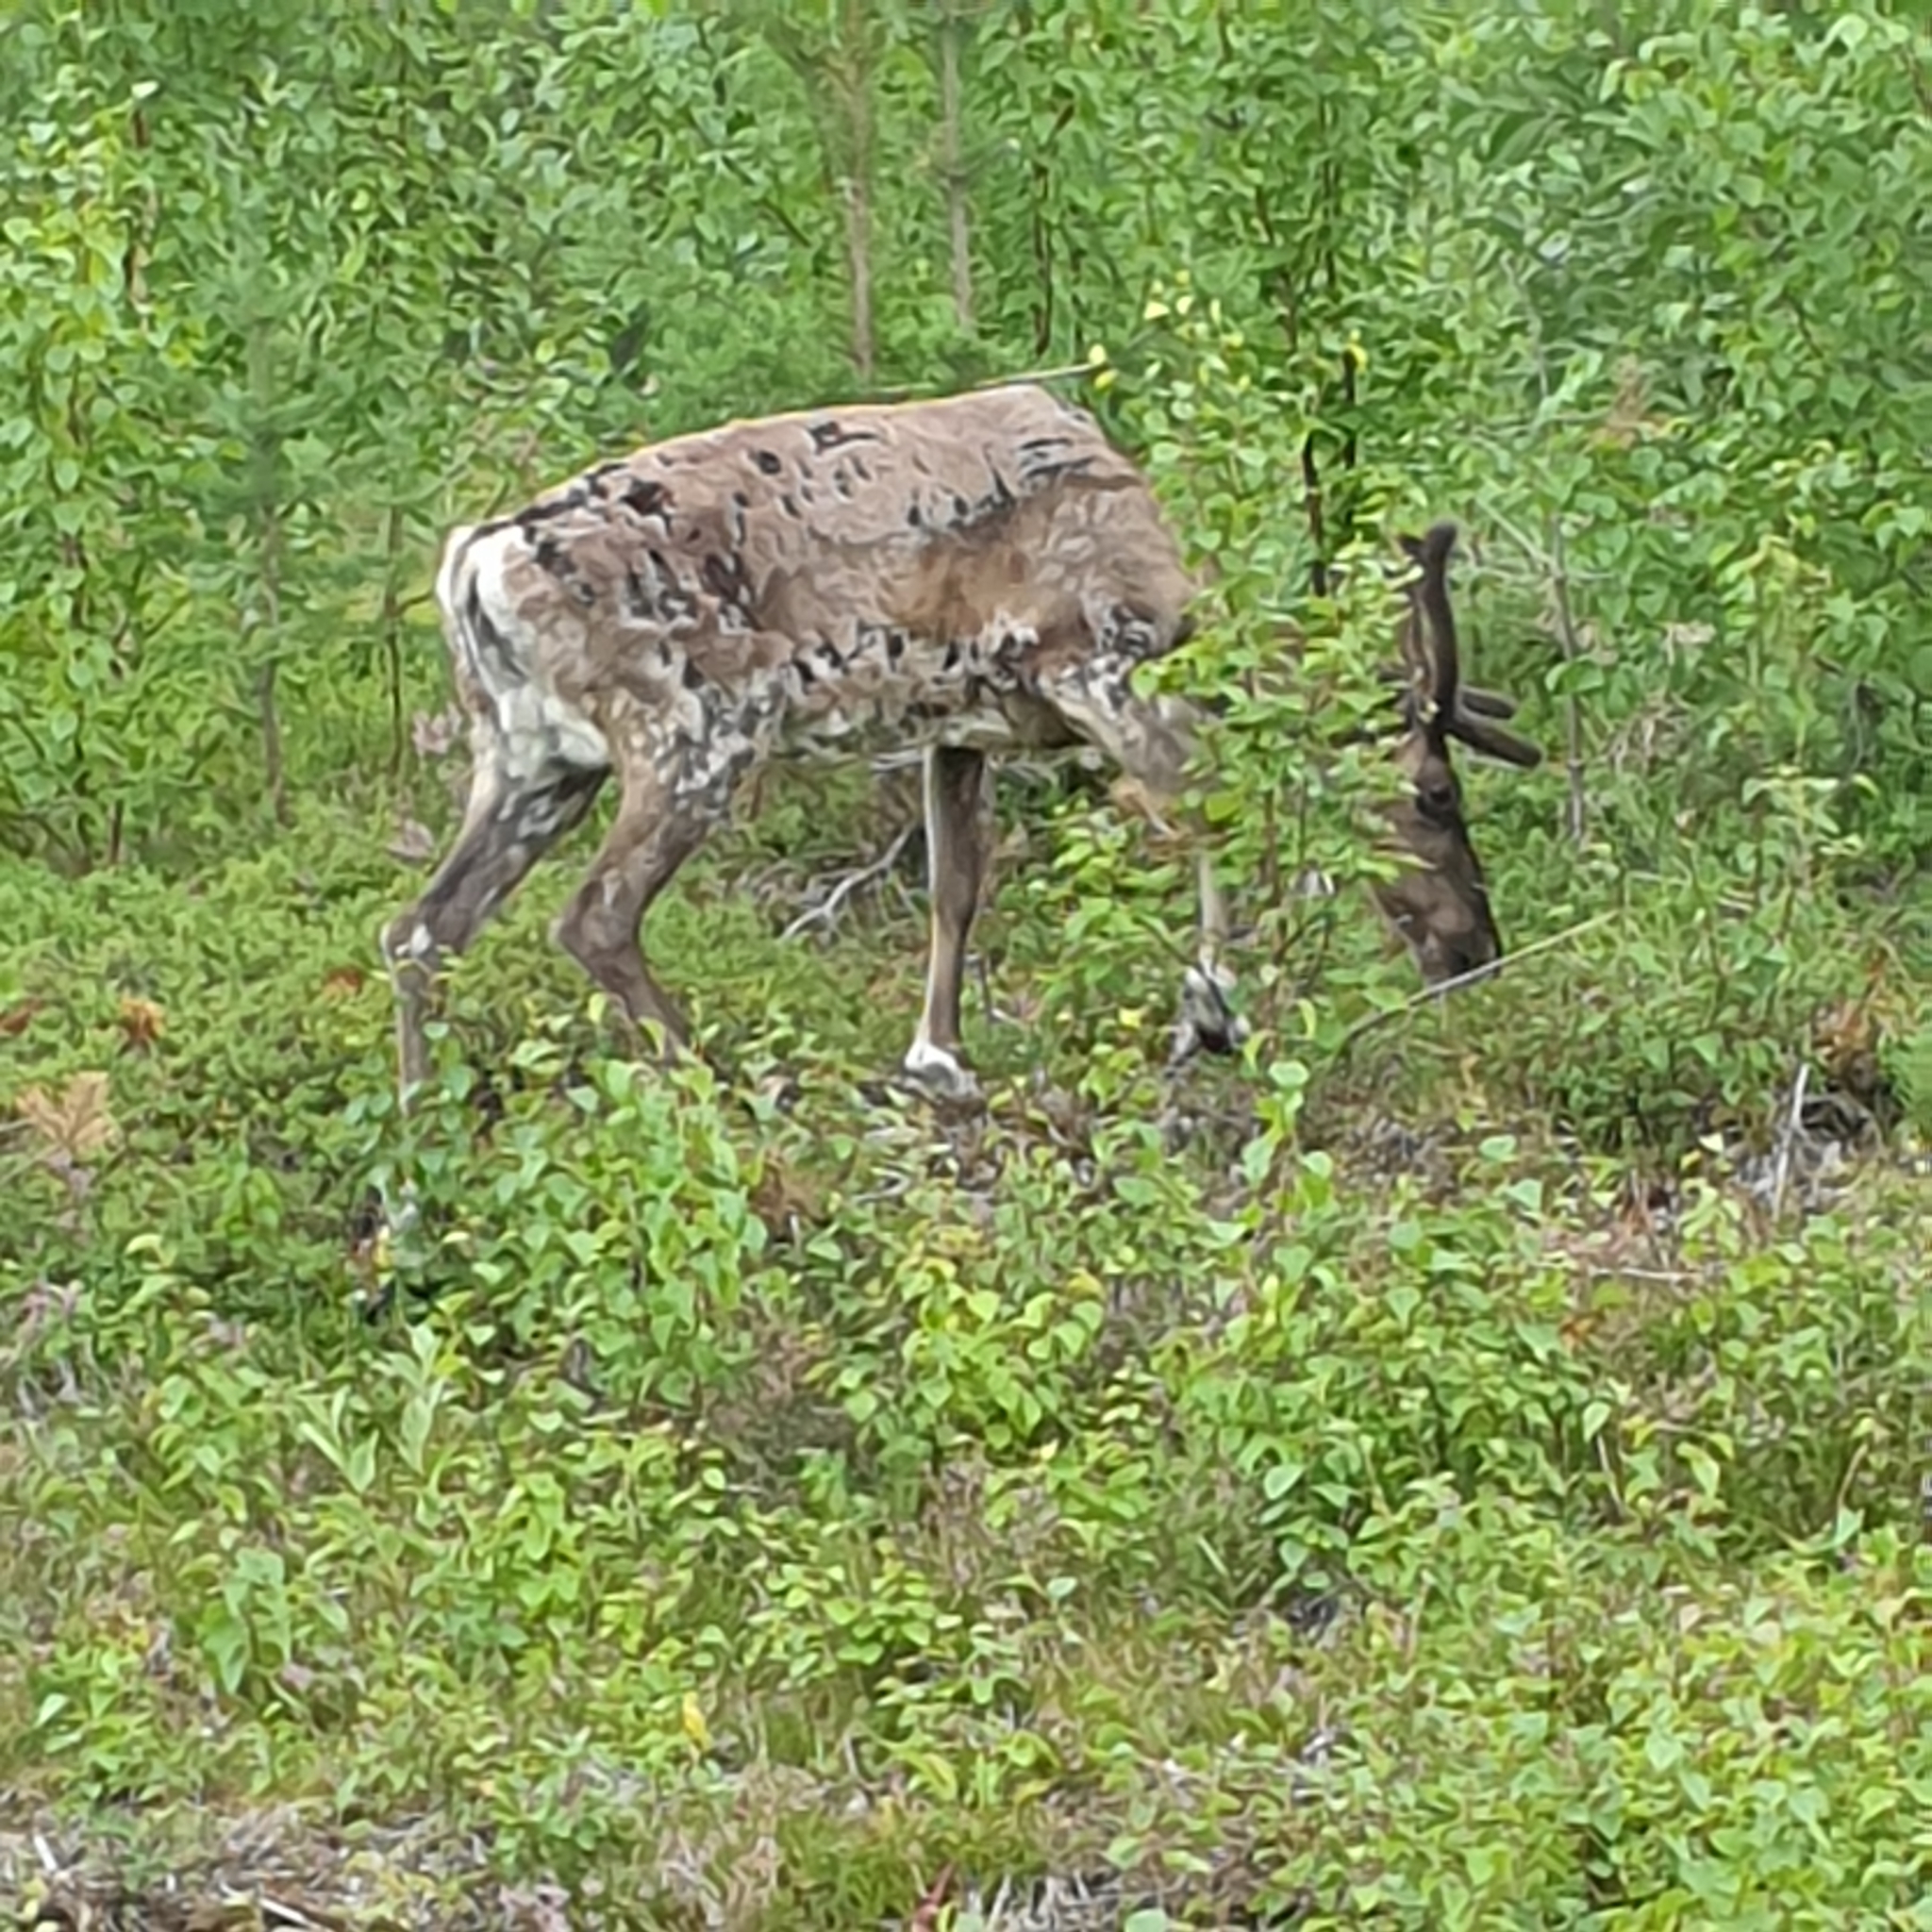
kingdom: Animalia
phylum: Chordata
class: Mammalia
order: Artiodactyla
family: Cervidae
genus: Rangifer
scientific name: Rangifer tarandus
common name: Reindeer
